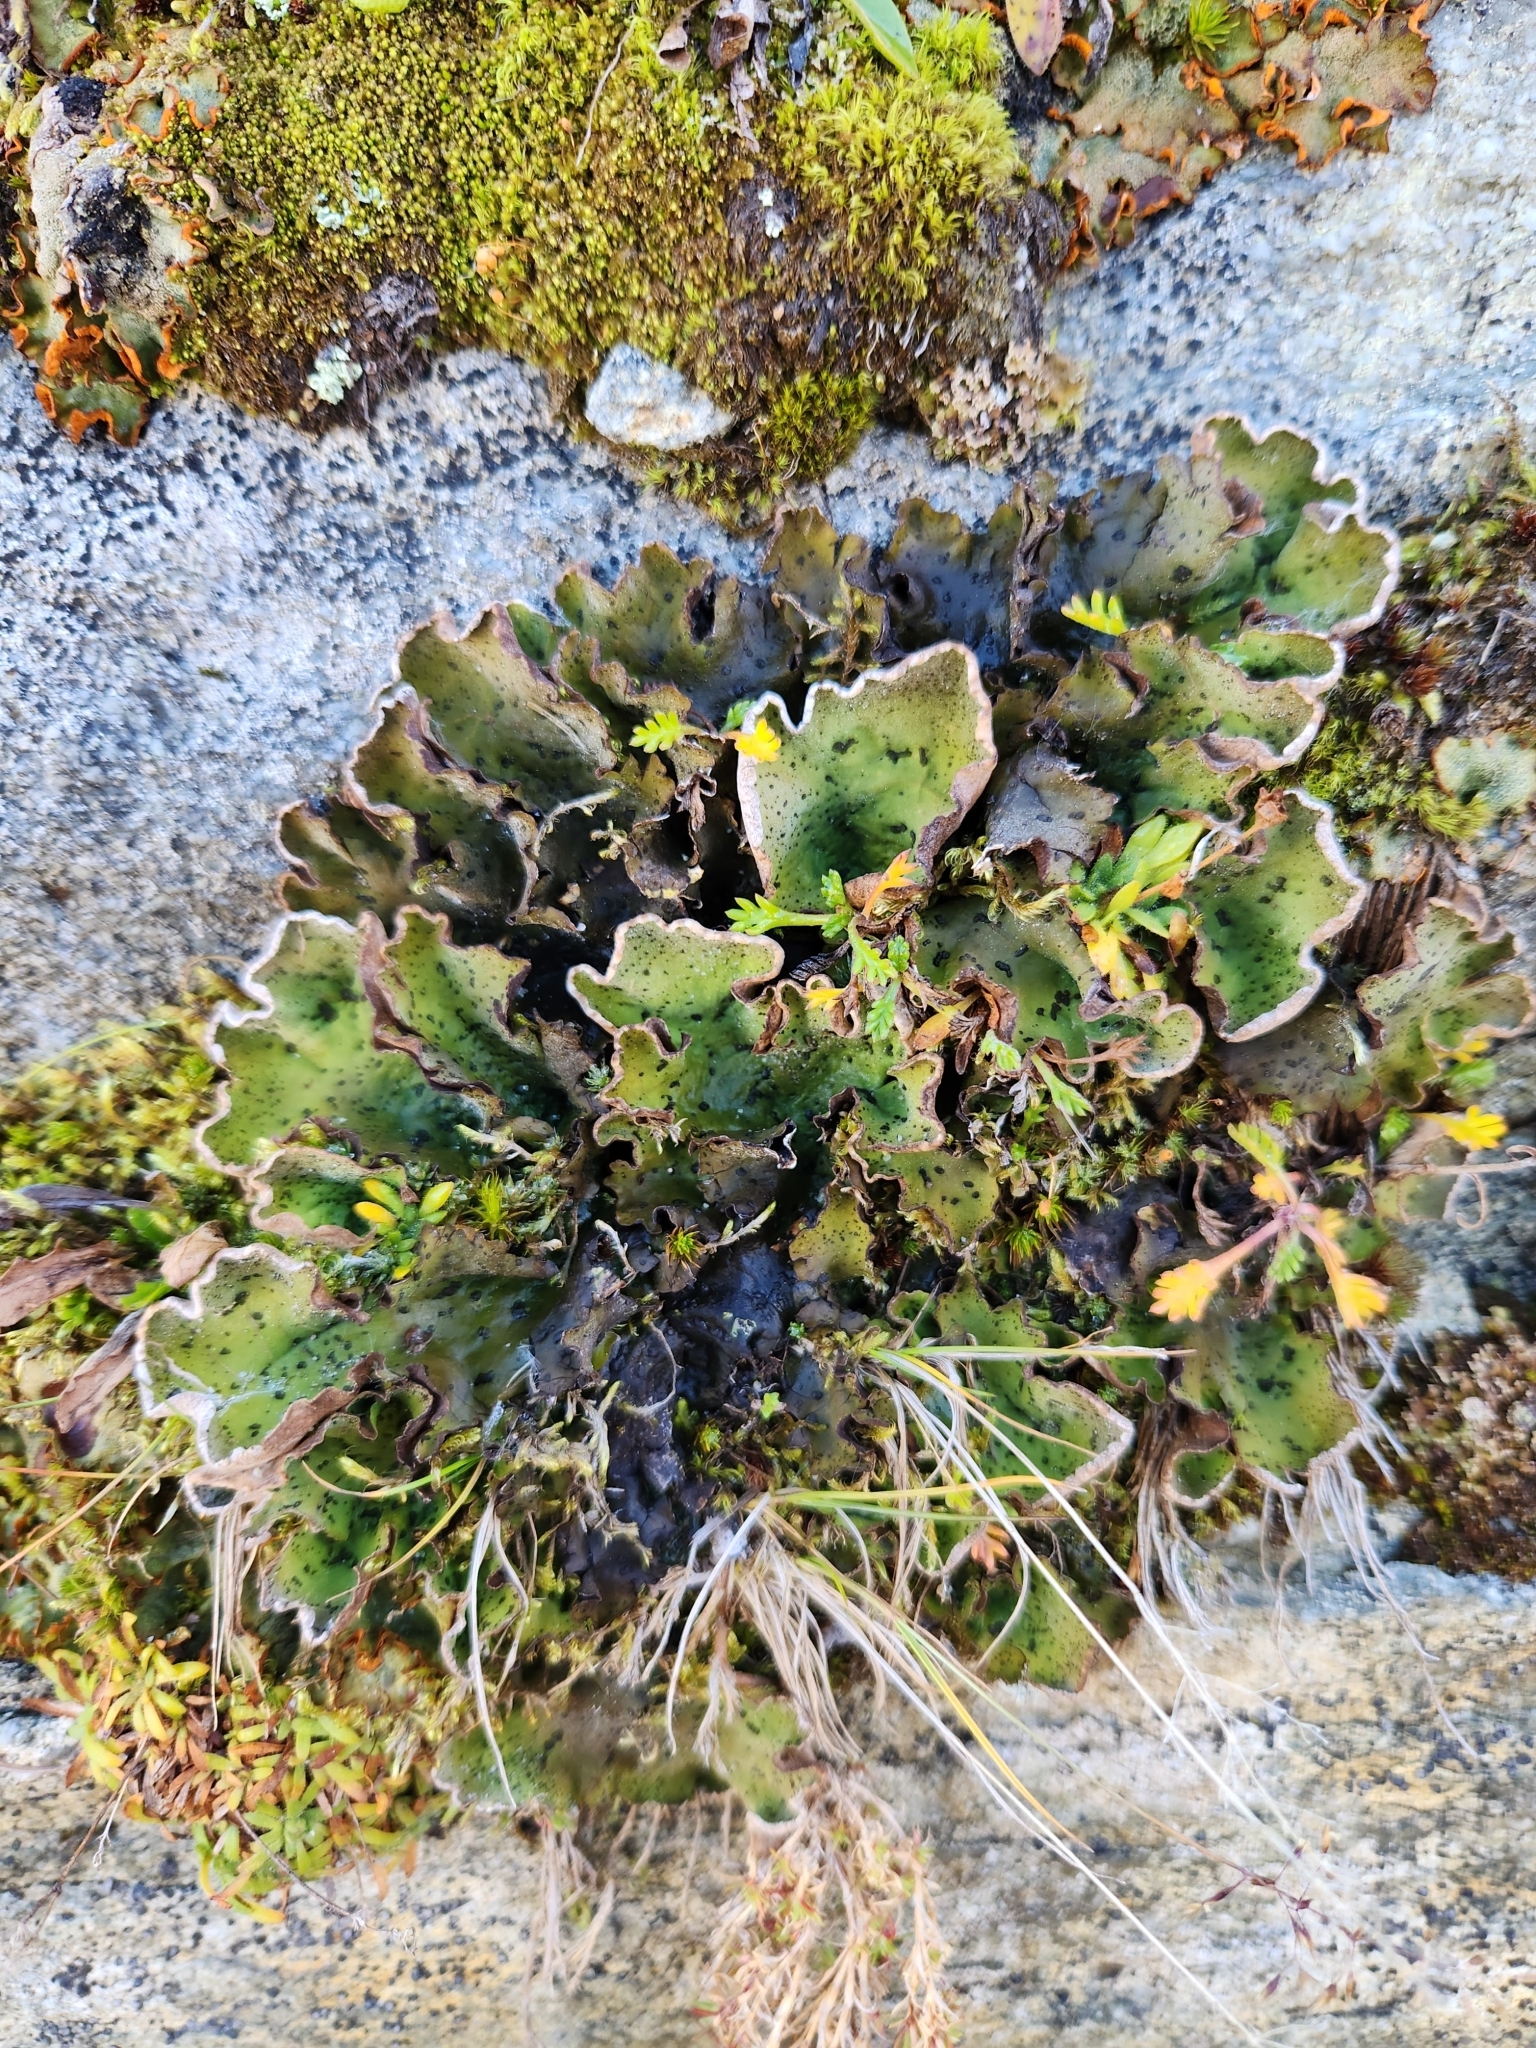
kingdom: Fungi
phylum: Ascomycota
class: Lecanoromycetes
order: Peltigerales
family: Peltigeraceae
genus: Peltigera
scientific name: Peltigera aphthosa
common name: Common freckle pelt lichen
